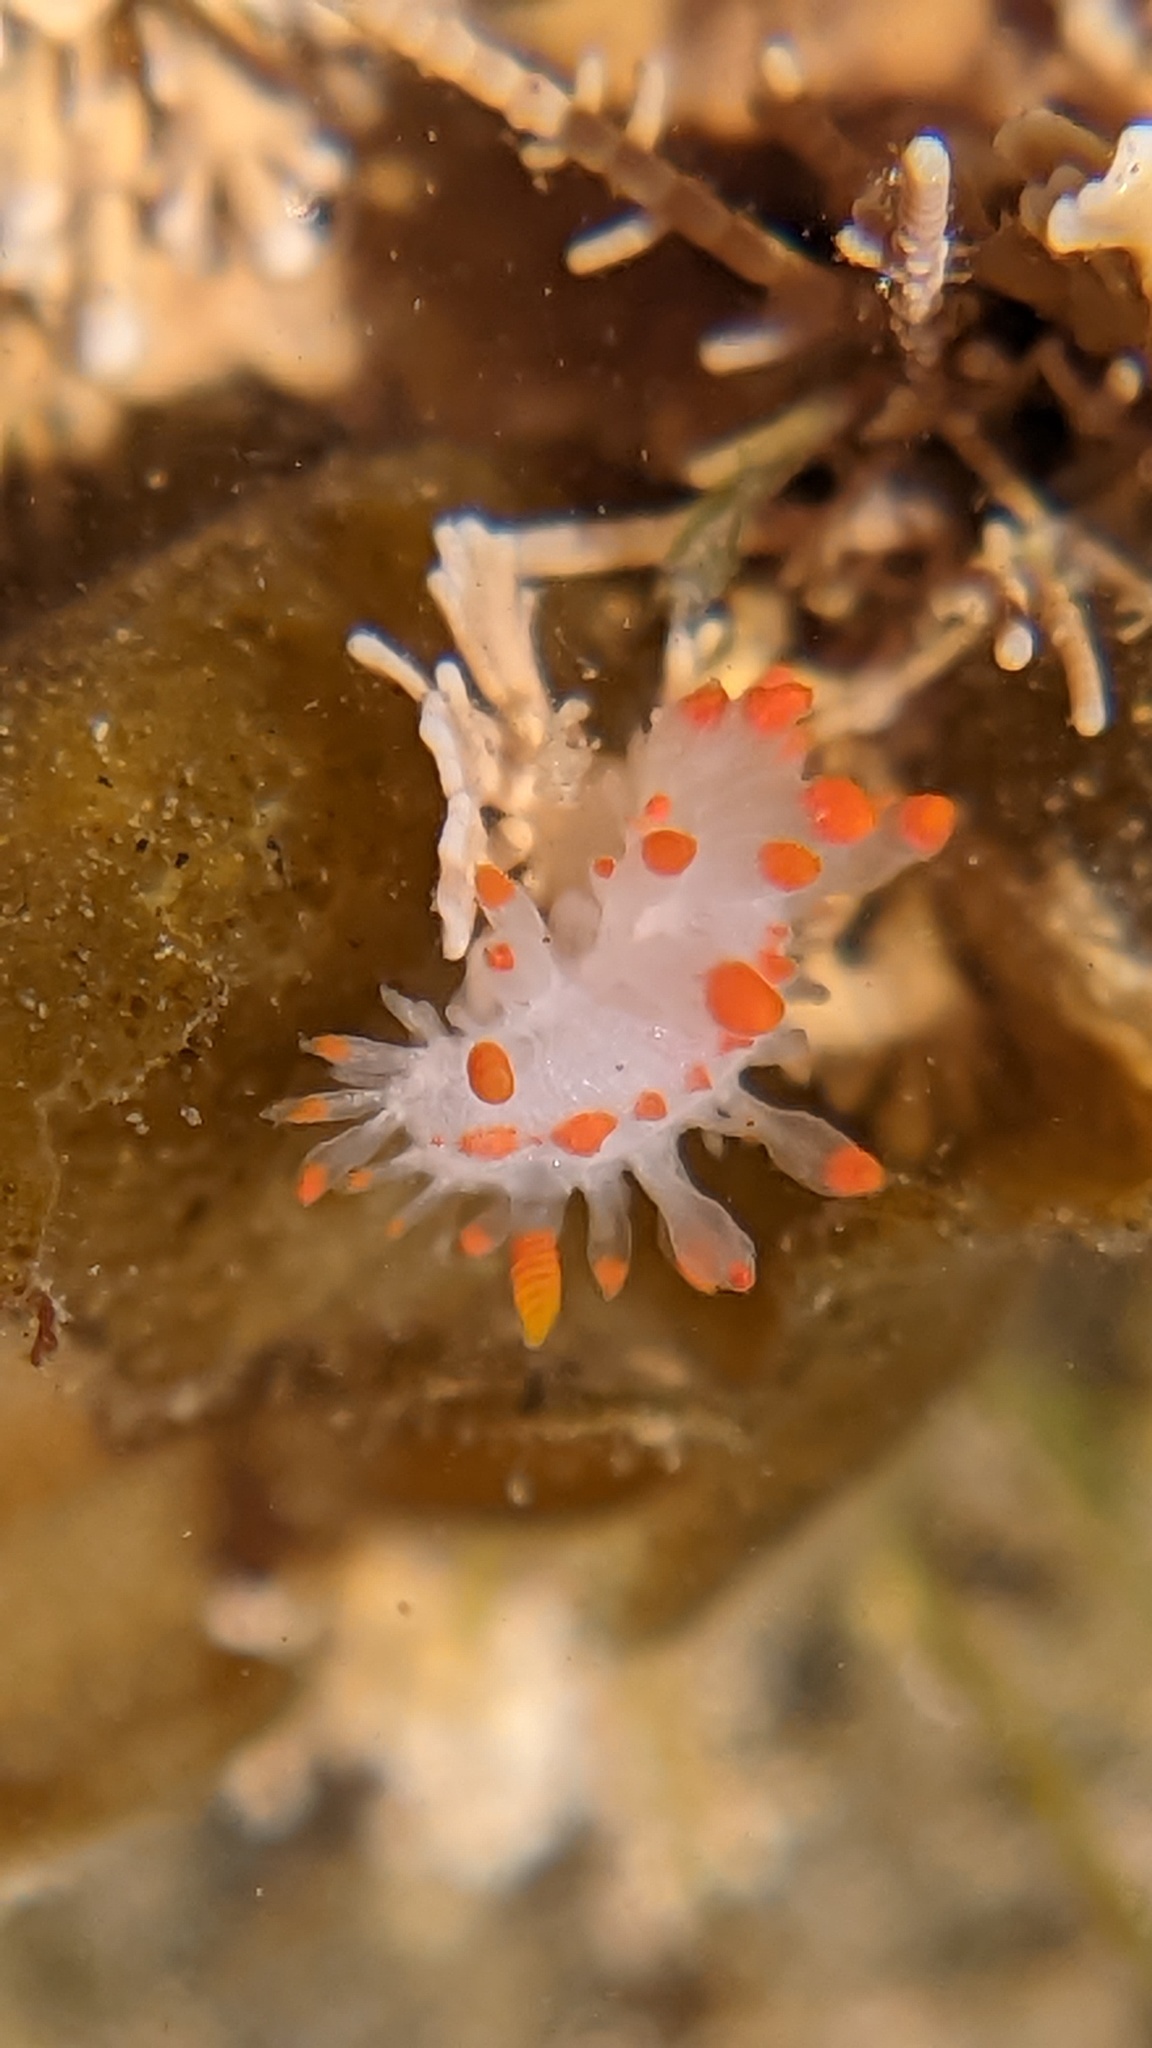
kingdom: Animalia
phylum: Mollusca
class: Gastropoda
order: Nudibranchia
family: Polyceridae
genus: Limacia
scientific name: Limacia mcdonaldi
